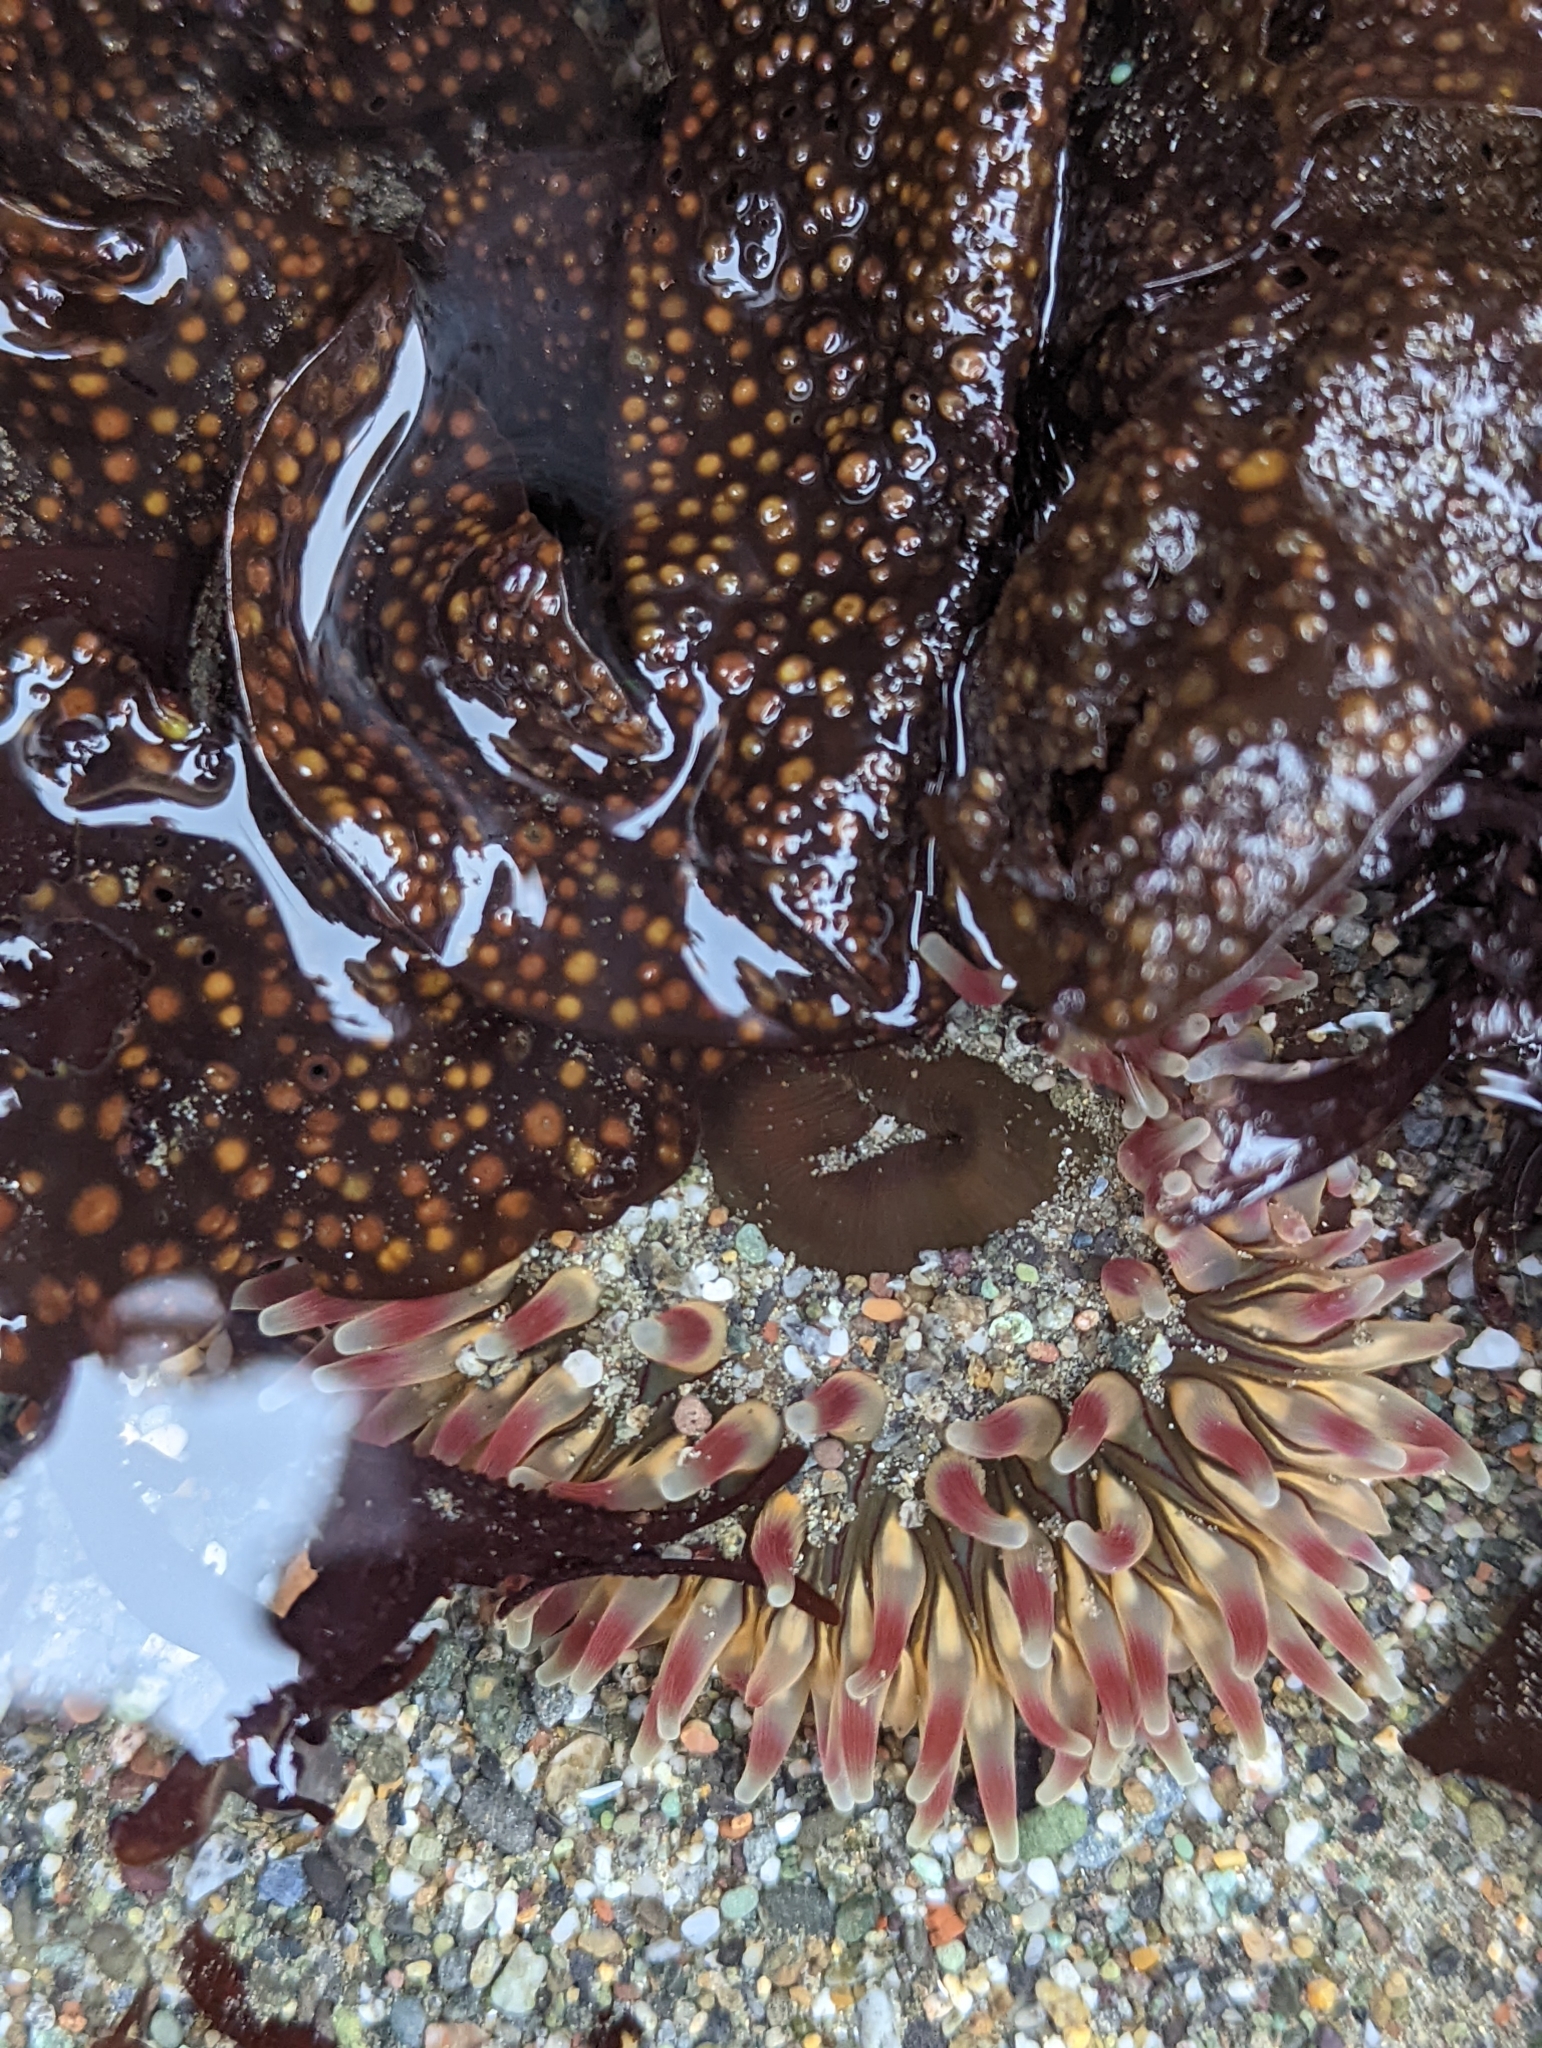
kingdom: Animalia
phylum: Cnidaria
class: Anthozoa
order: Actiniaria
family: Actiniidae
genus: Urticina
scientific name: Urticina clandestina
